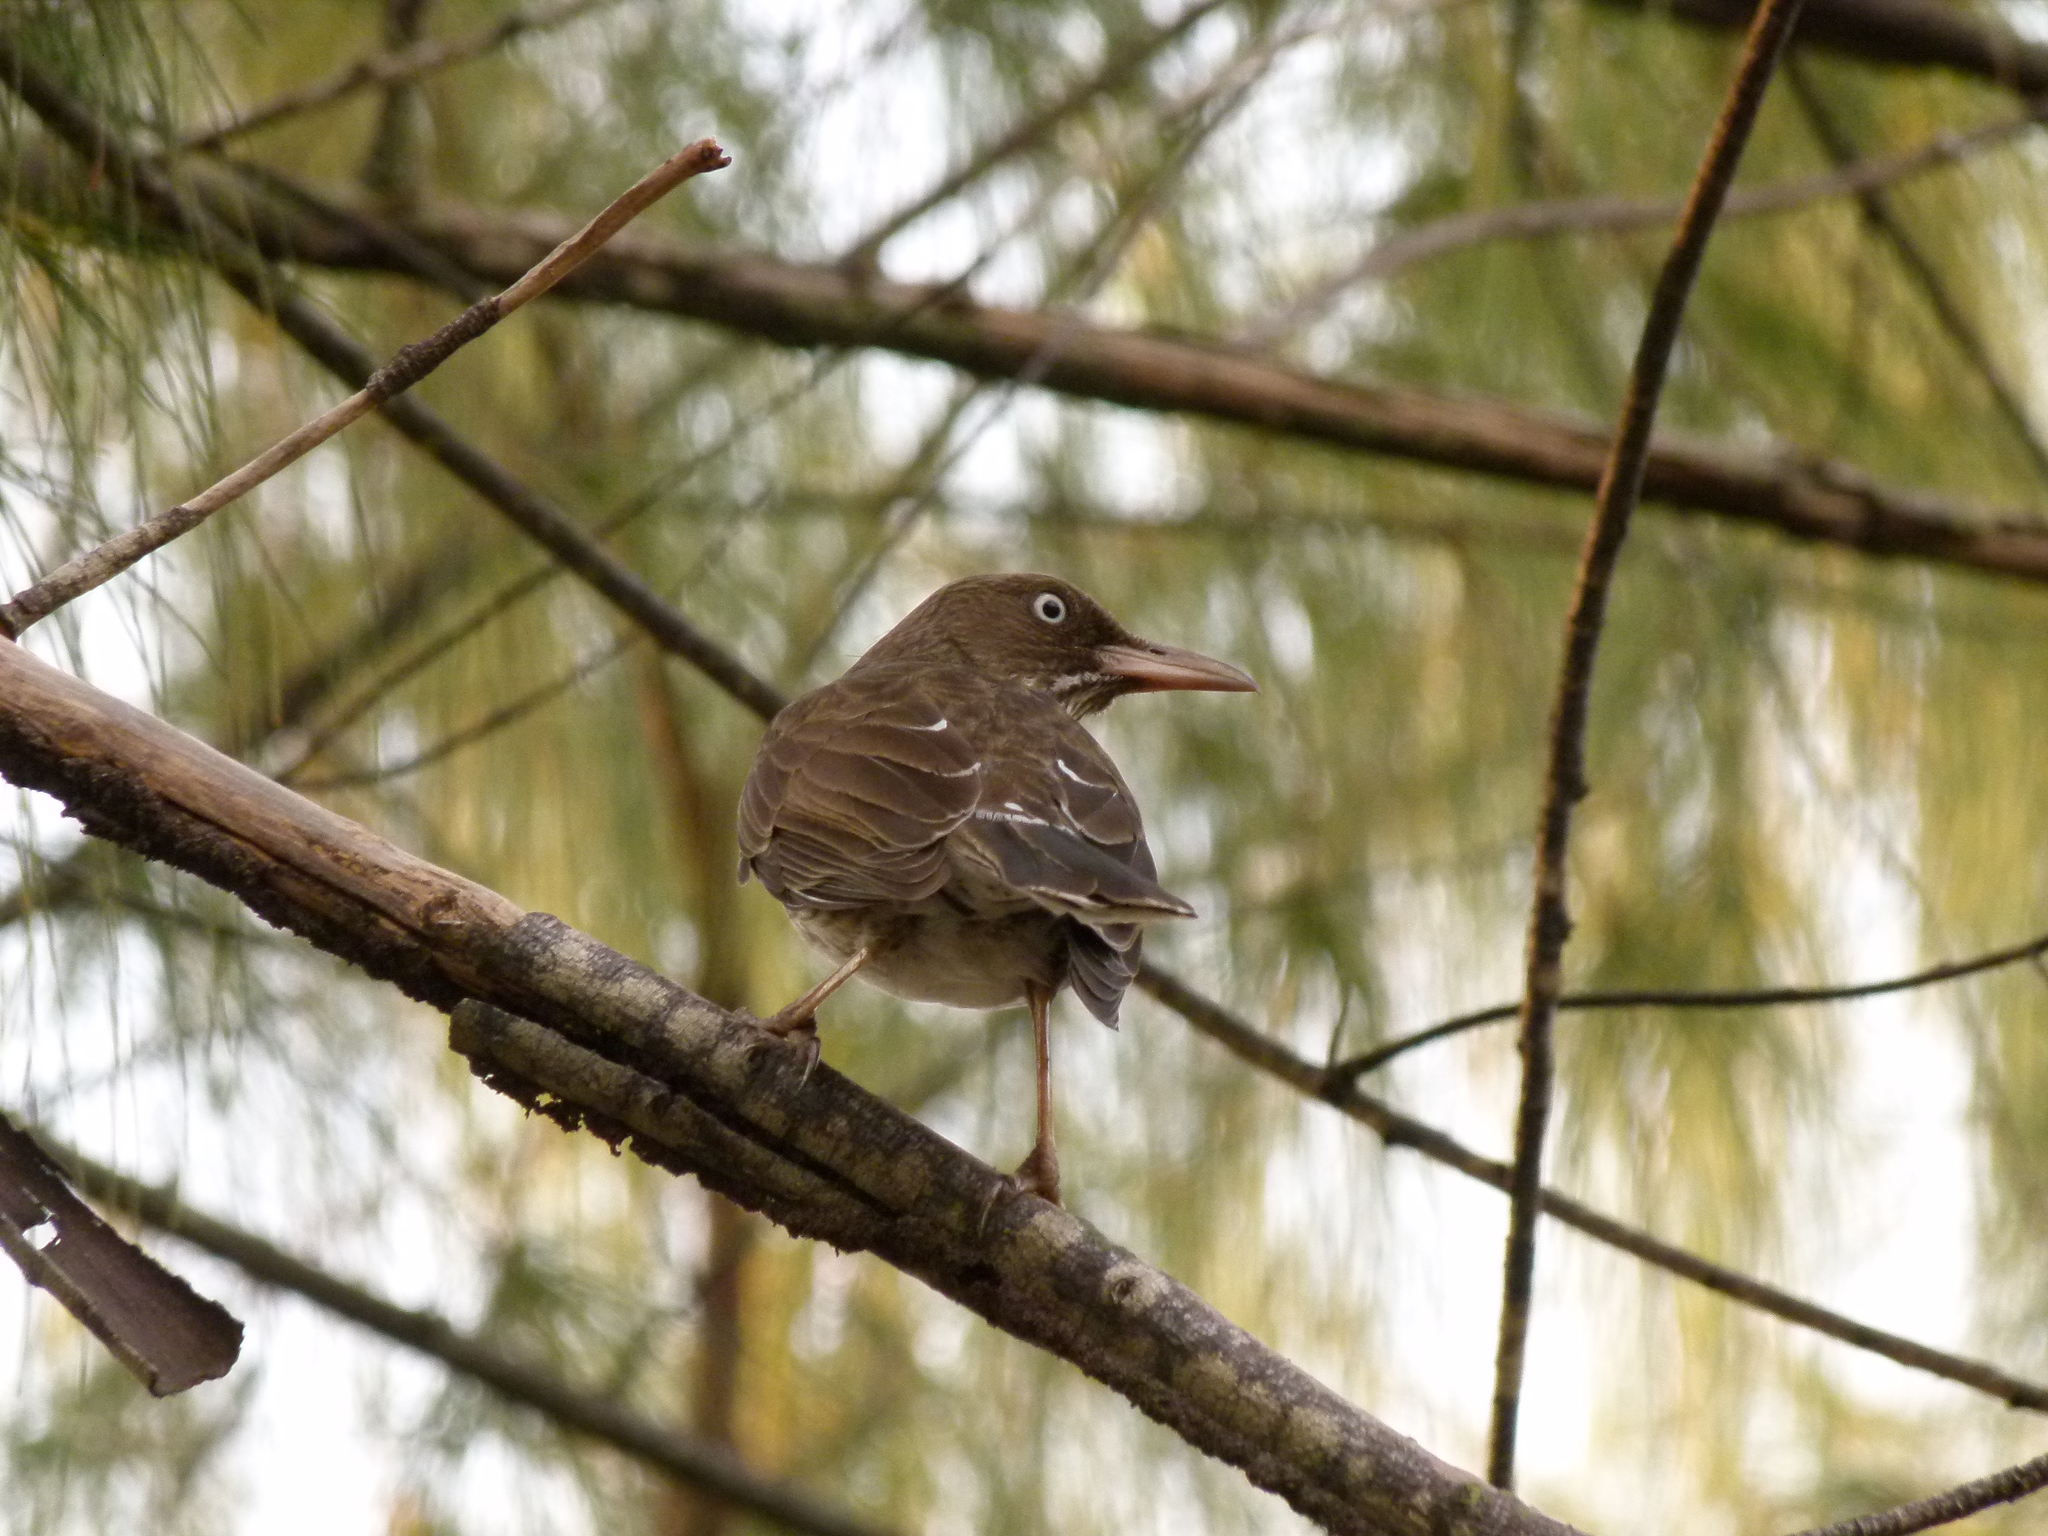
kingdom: Animalia
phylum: Chordata
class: Aves
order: Passeriformes
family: Mimidae
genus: Margarops
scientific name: Margarops fuscatus
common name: Pearly-eyed thrasher
